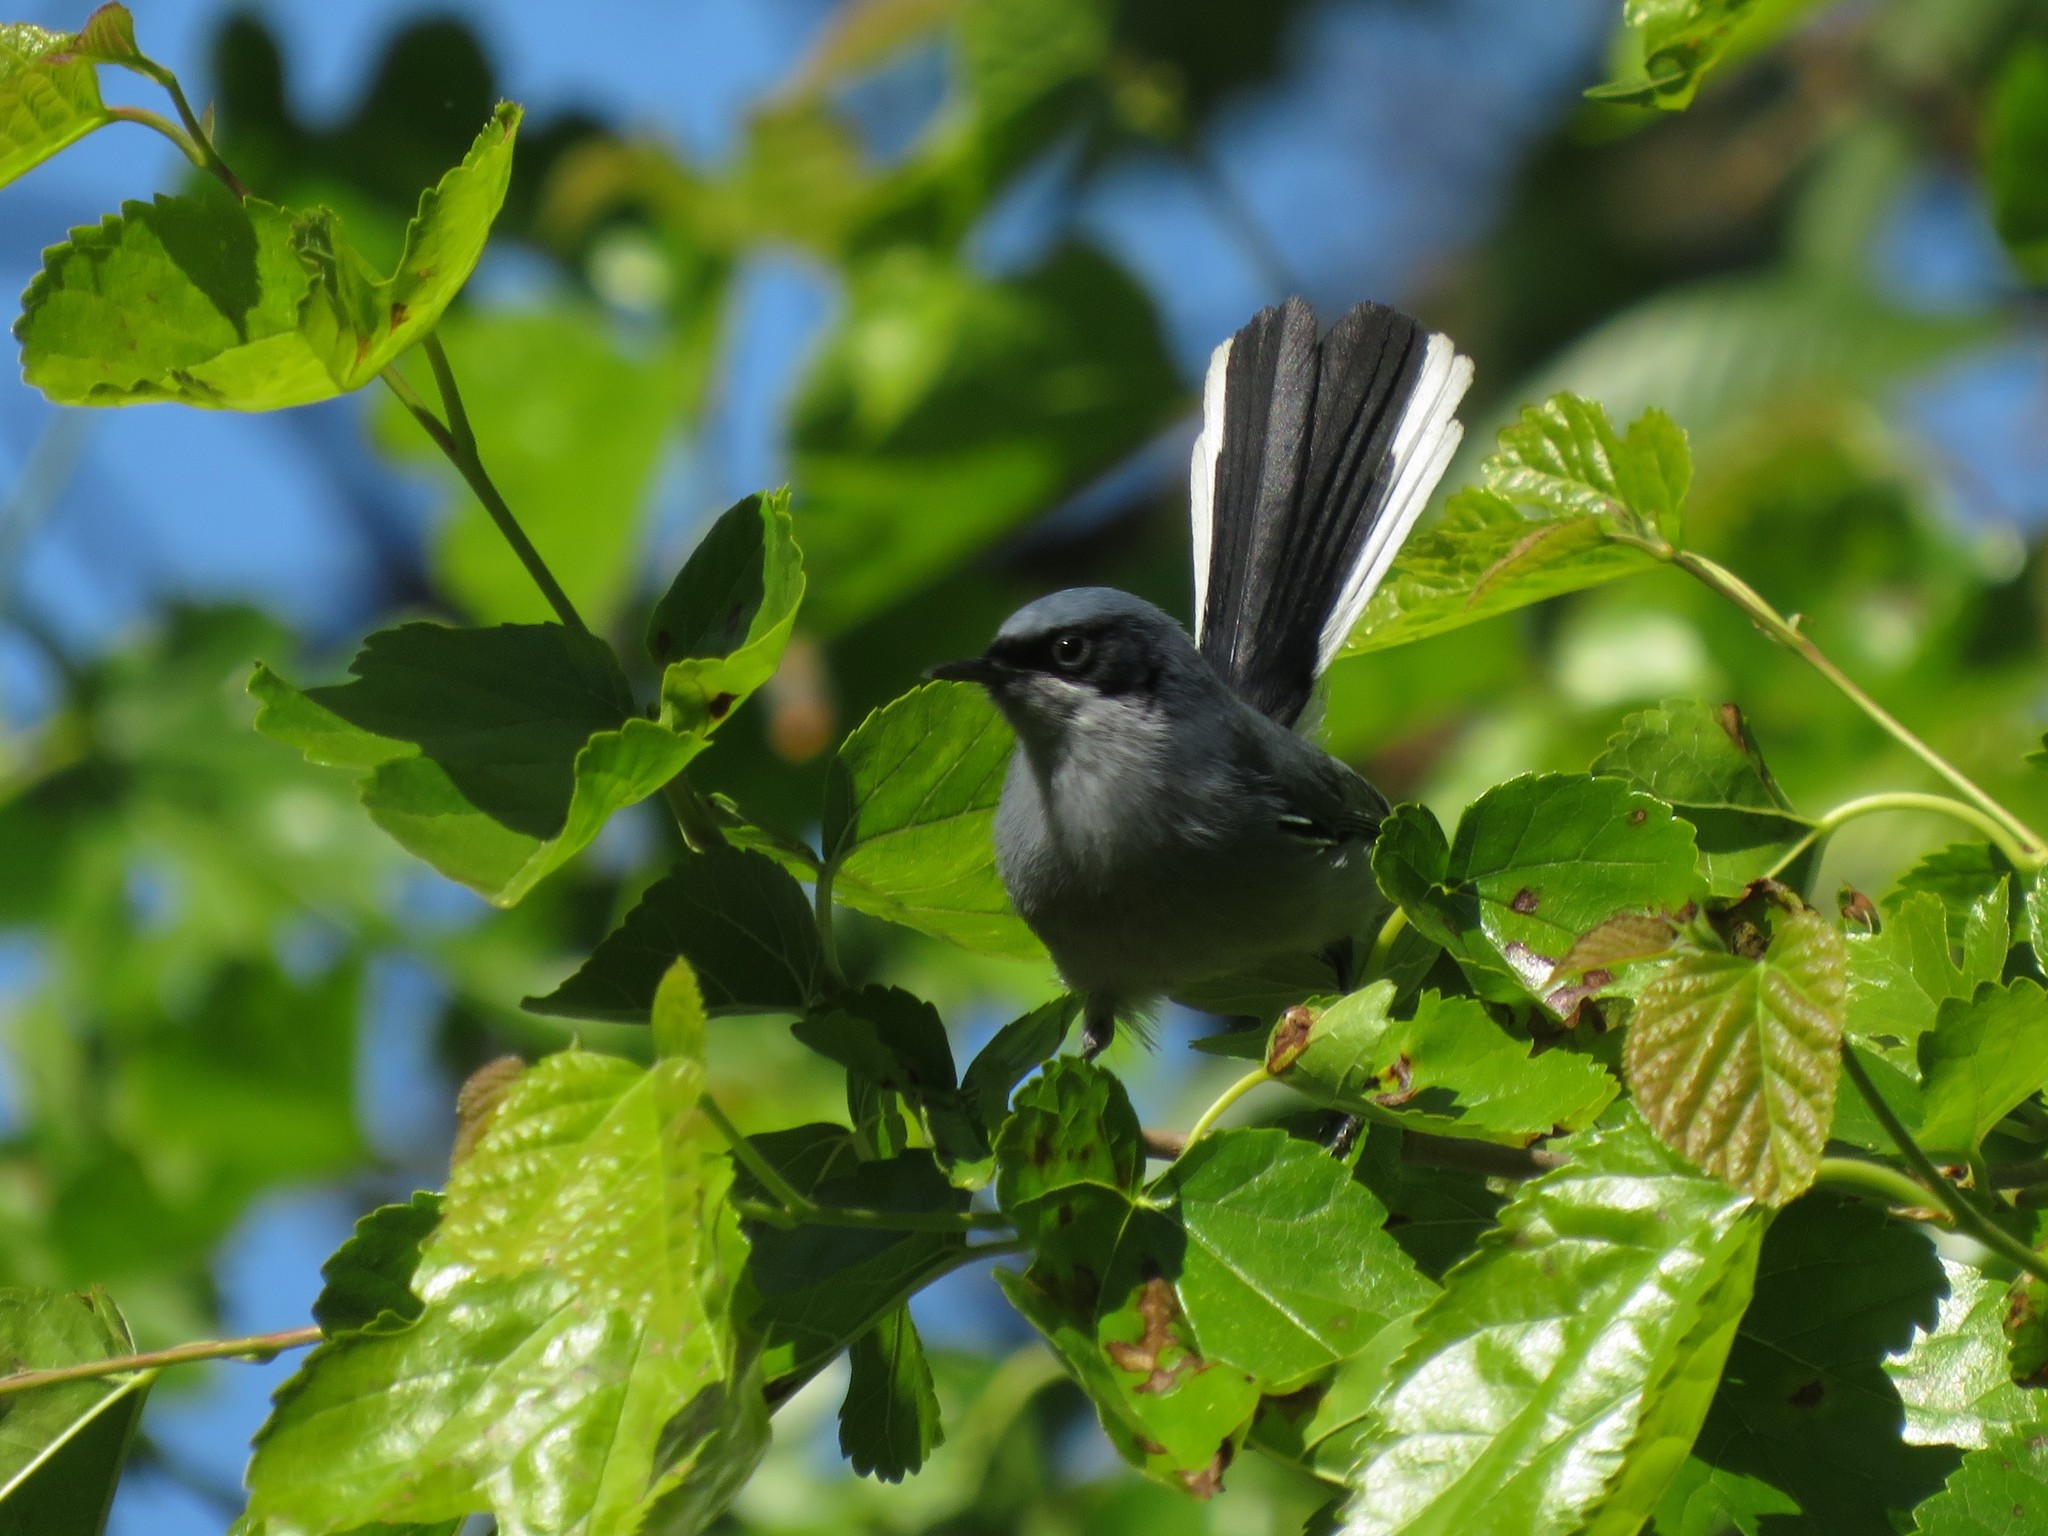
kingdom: Animalia
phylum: Chordata
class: Aves
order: Passeriformes
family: Polioptilidae
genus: Polioptila
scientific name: Polioptila dumicola
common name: Masked gnatcatcher
